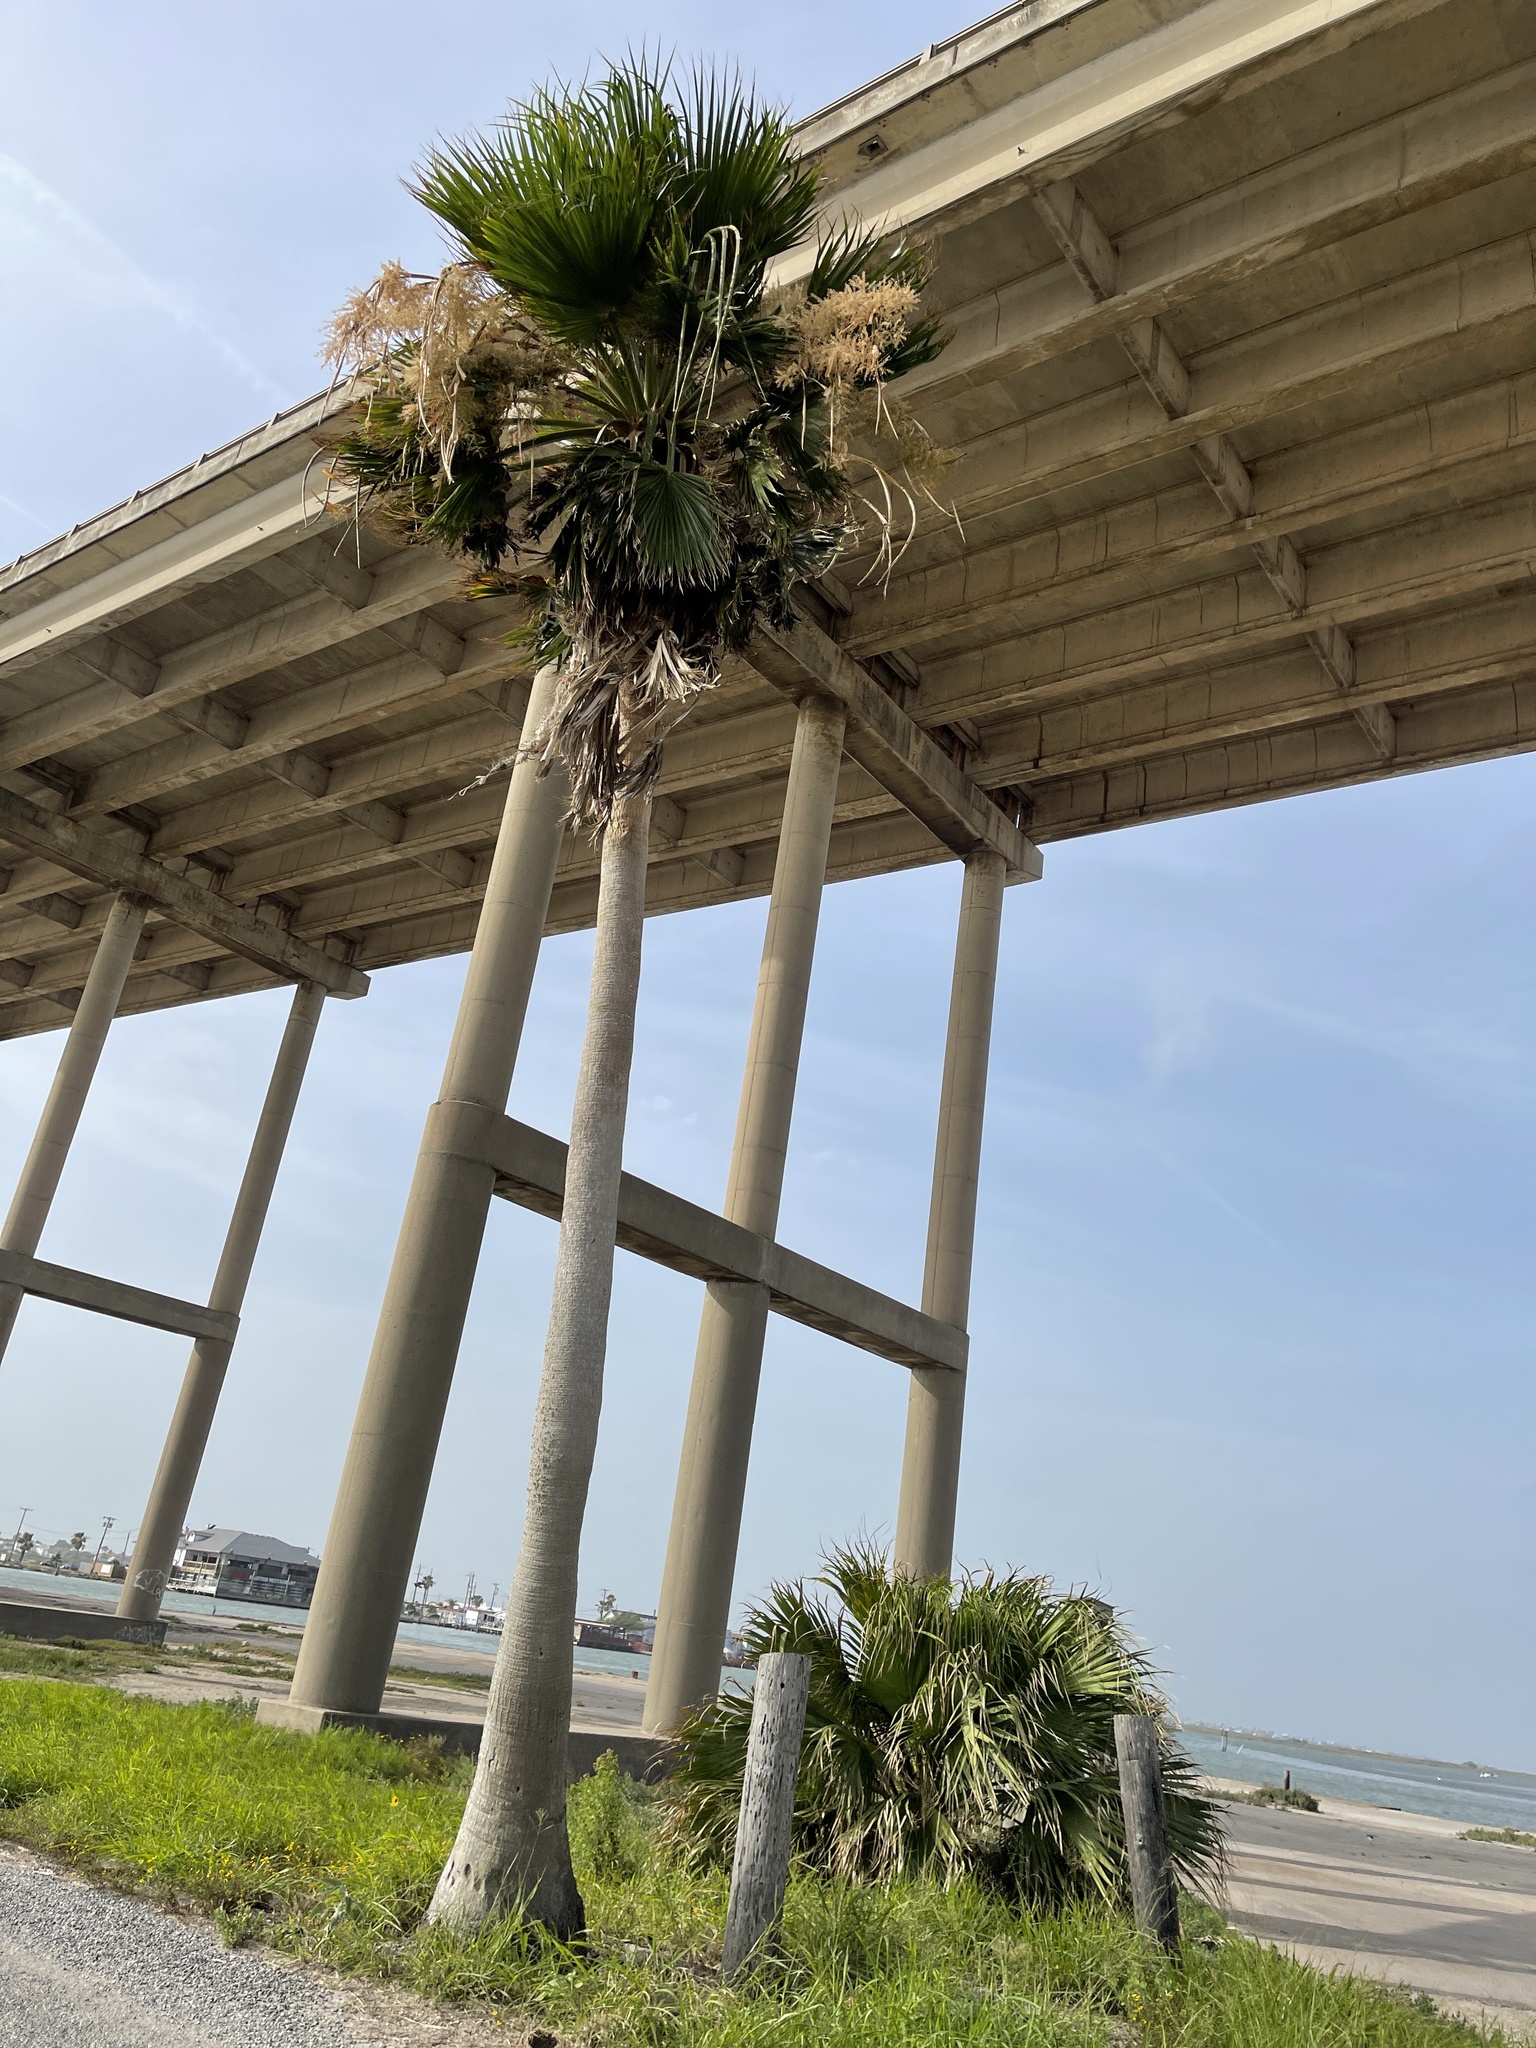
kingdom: Plantae
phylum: Tracheophyta
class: Liliopsida
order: Arecales
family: Arecaceae
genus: Washingtonia
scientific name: Washingtonia robusta
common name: Mexican fan palm
